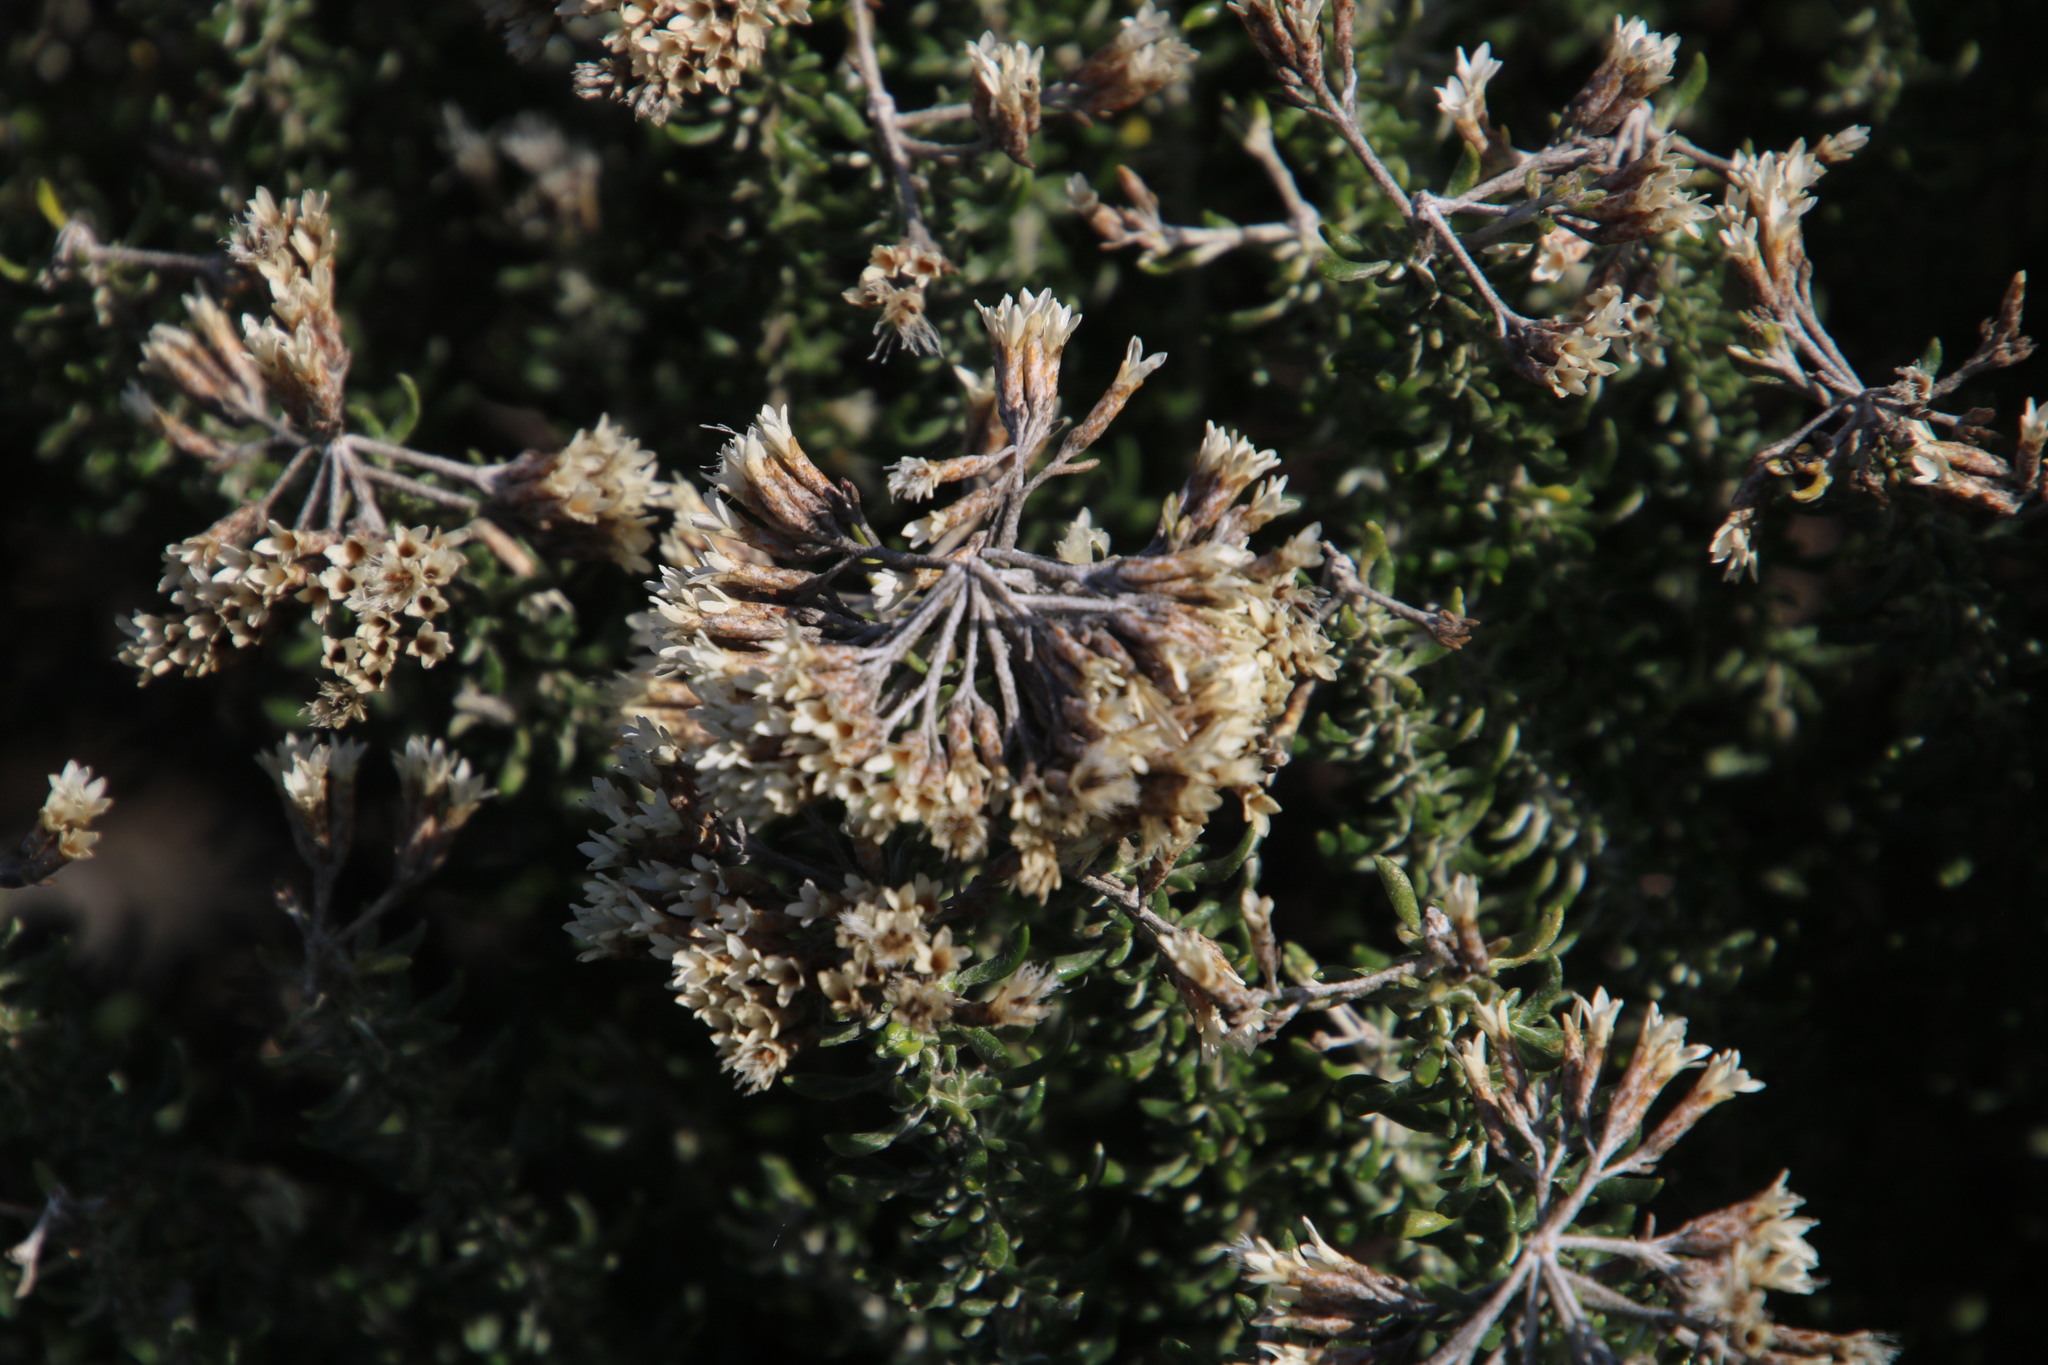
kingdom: Plantae
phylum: Tracheophyta
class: Magnoliopsida
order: Asterales
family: Asteraceae
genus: Metalasia
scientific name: Metalasia muricata
